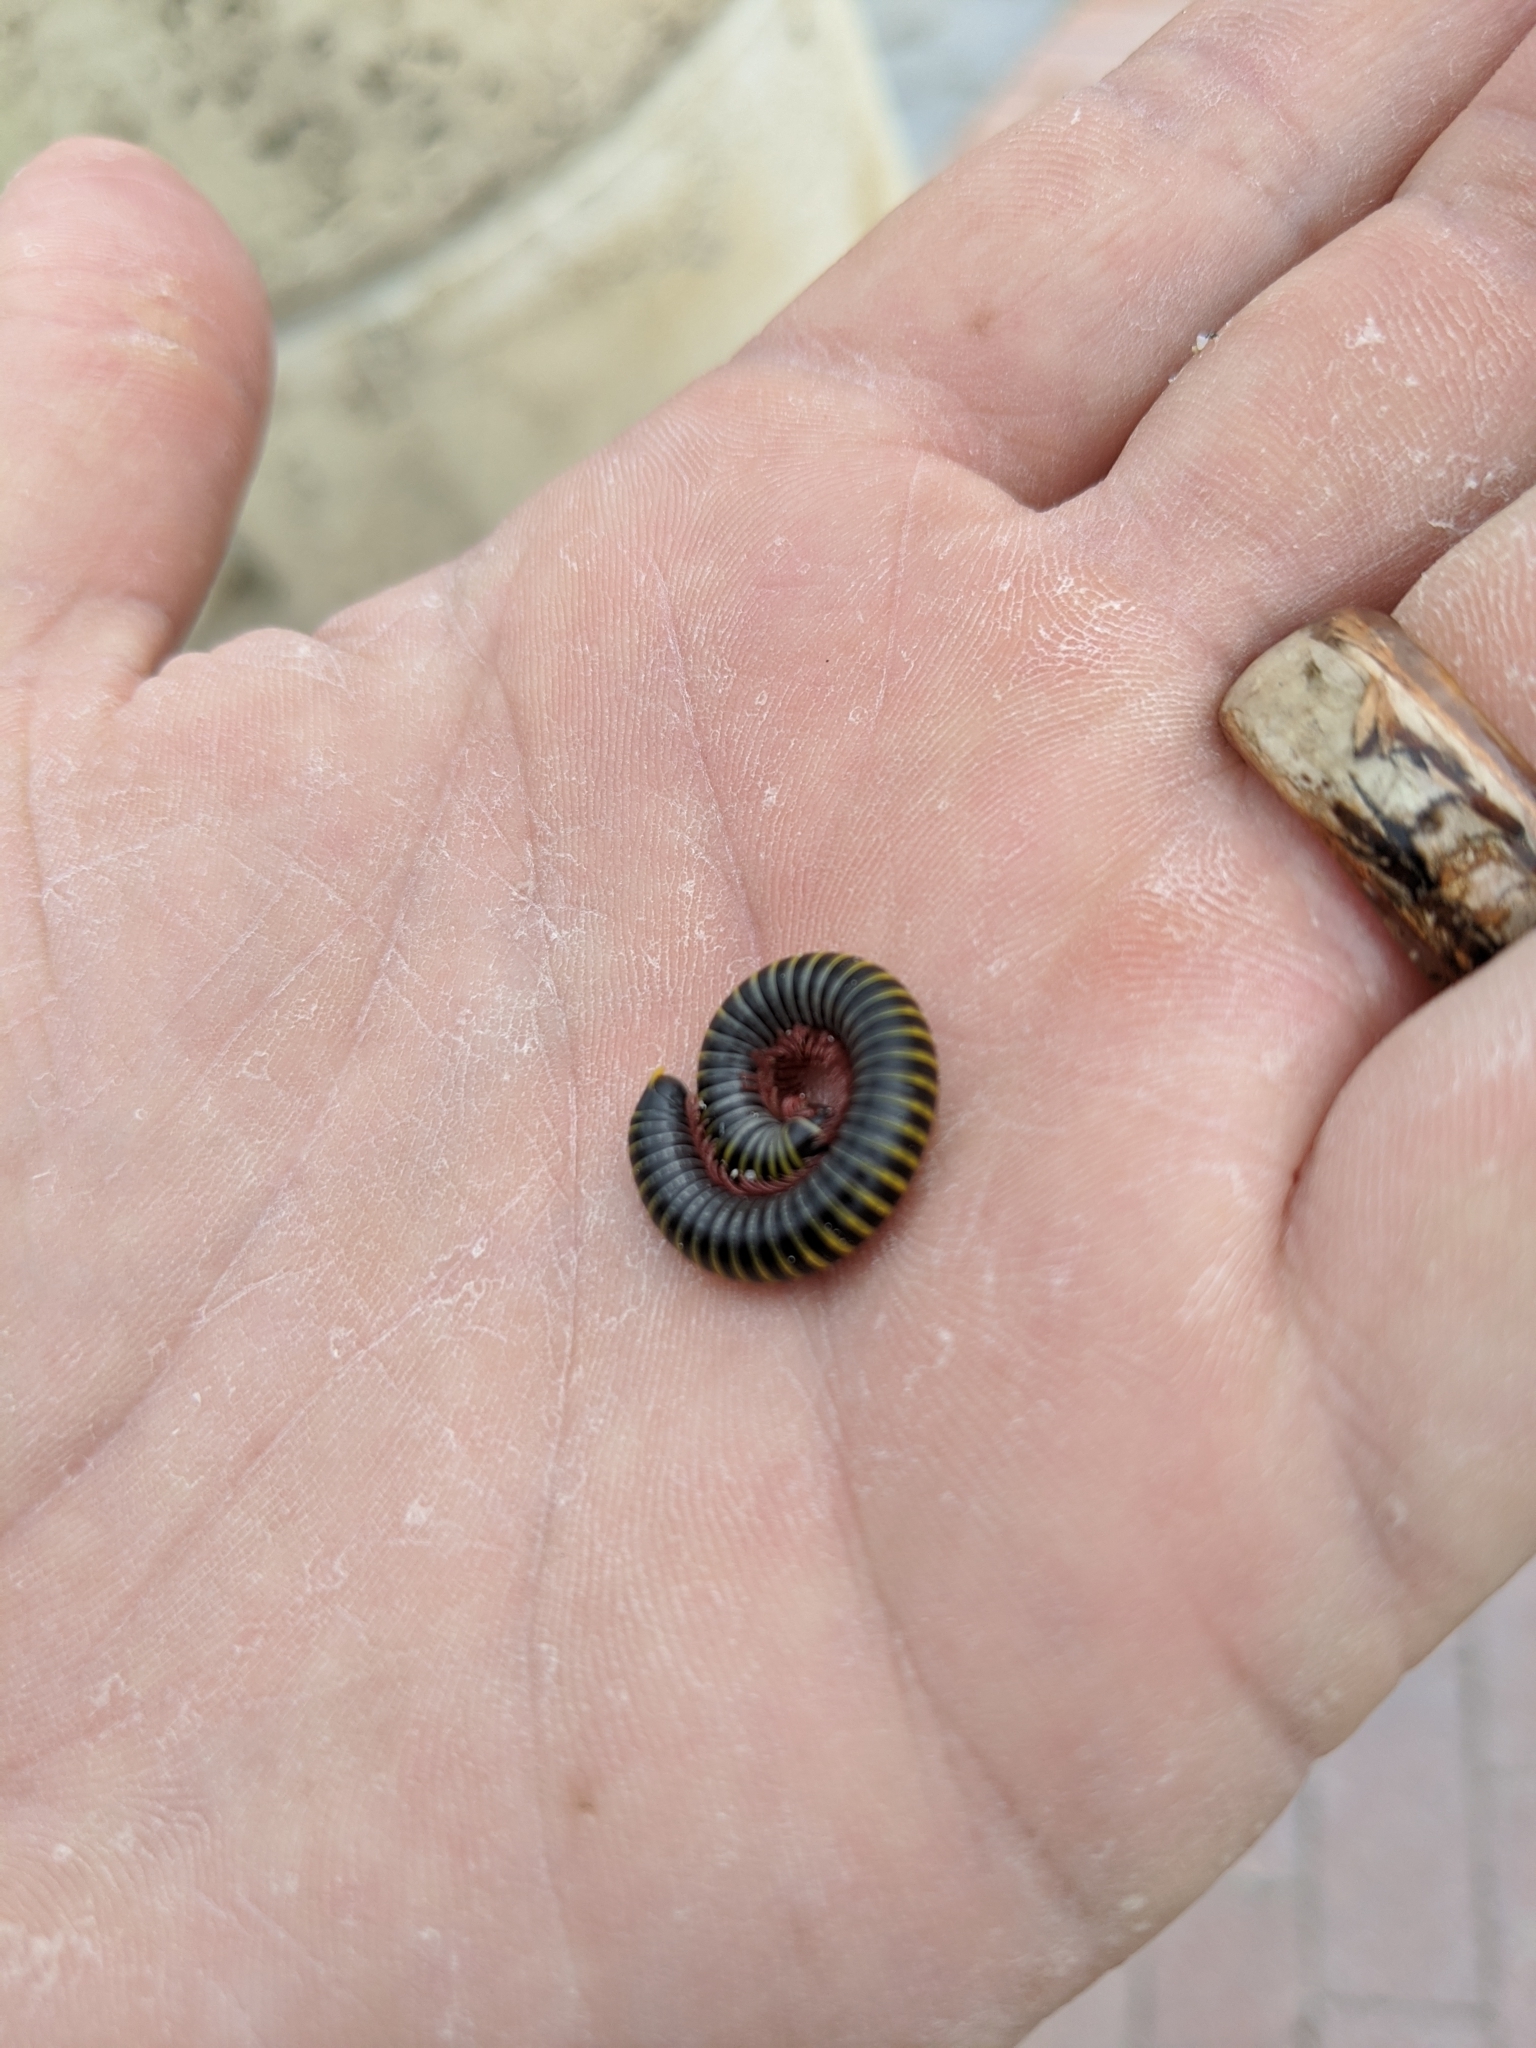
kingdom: Animalia
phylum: Arthropoda
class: Diplopoda
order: Spirobolida
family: Rhinocricidae
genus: Anadenobolus
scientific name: Anadenobolus monilicornis
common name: Caribbean millipede
